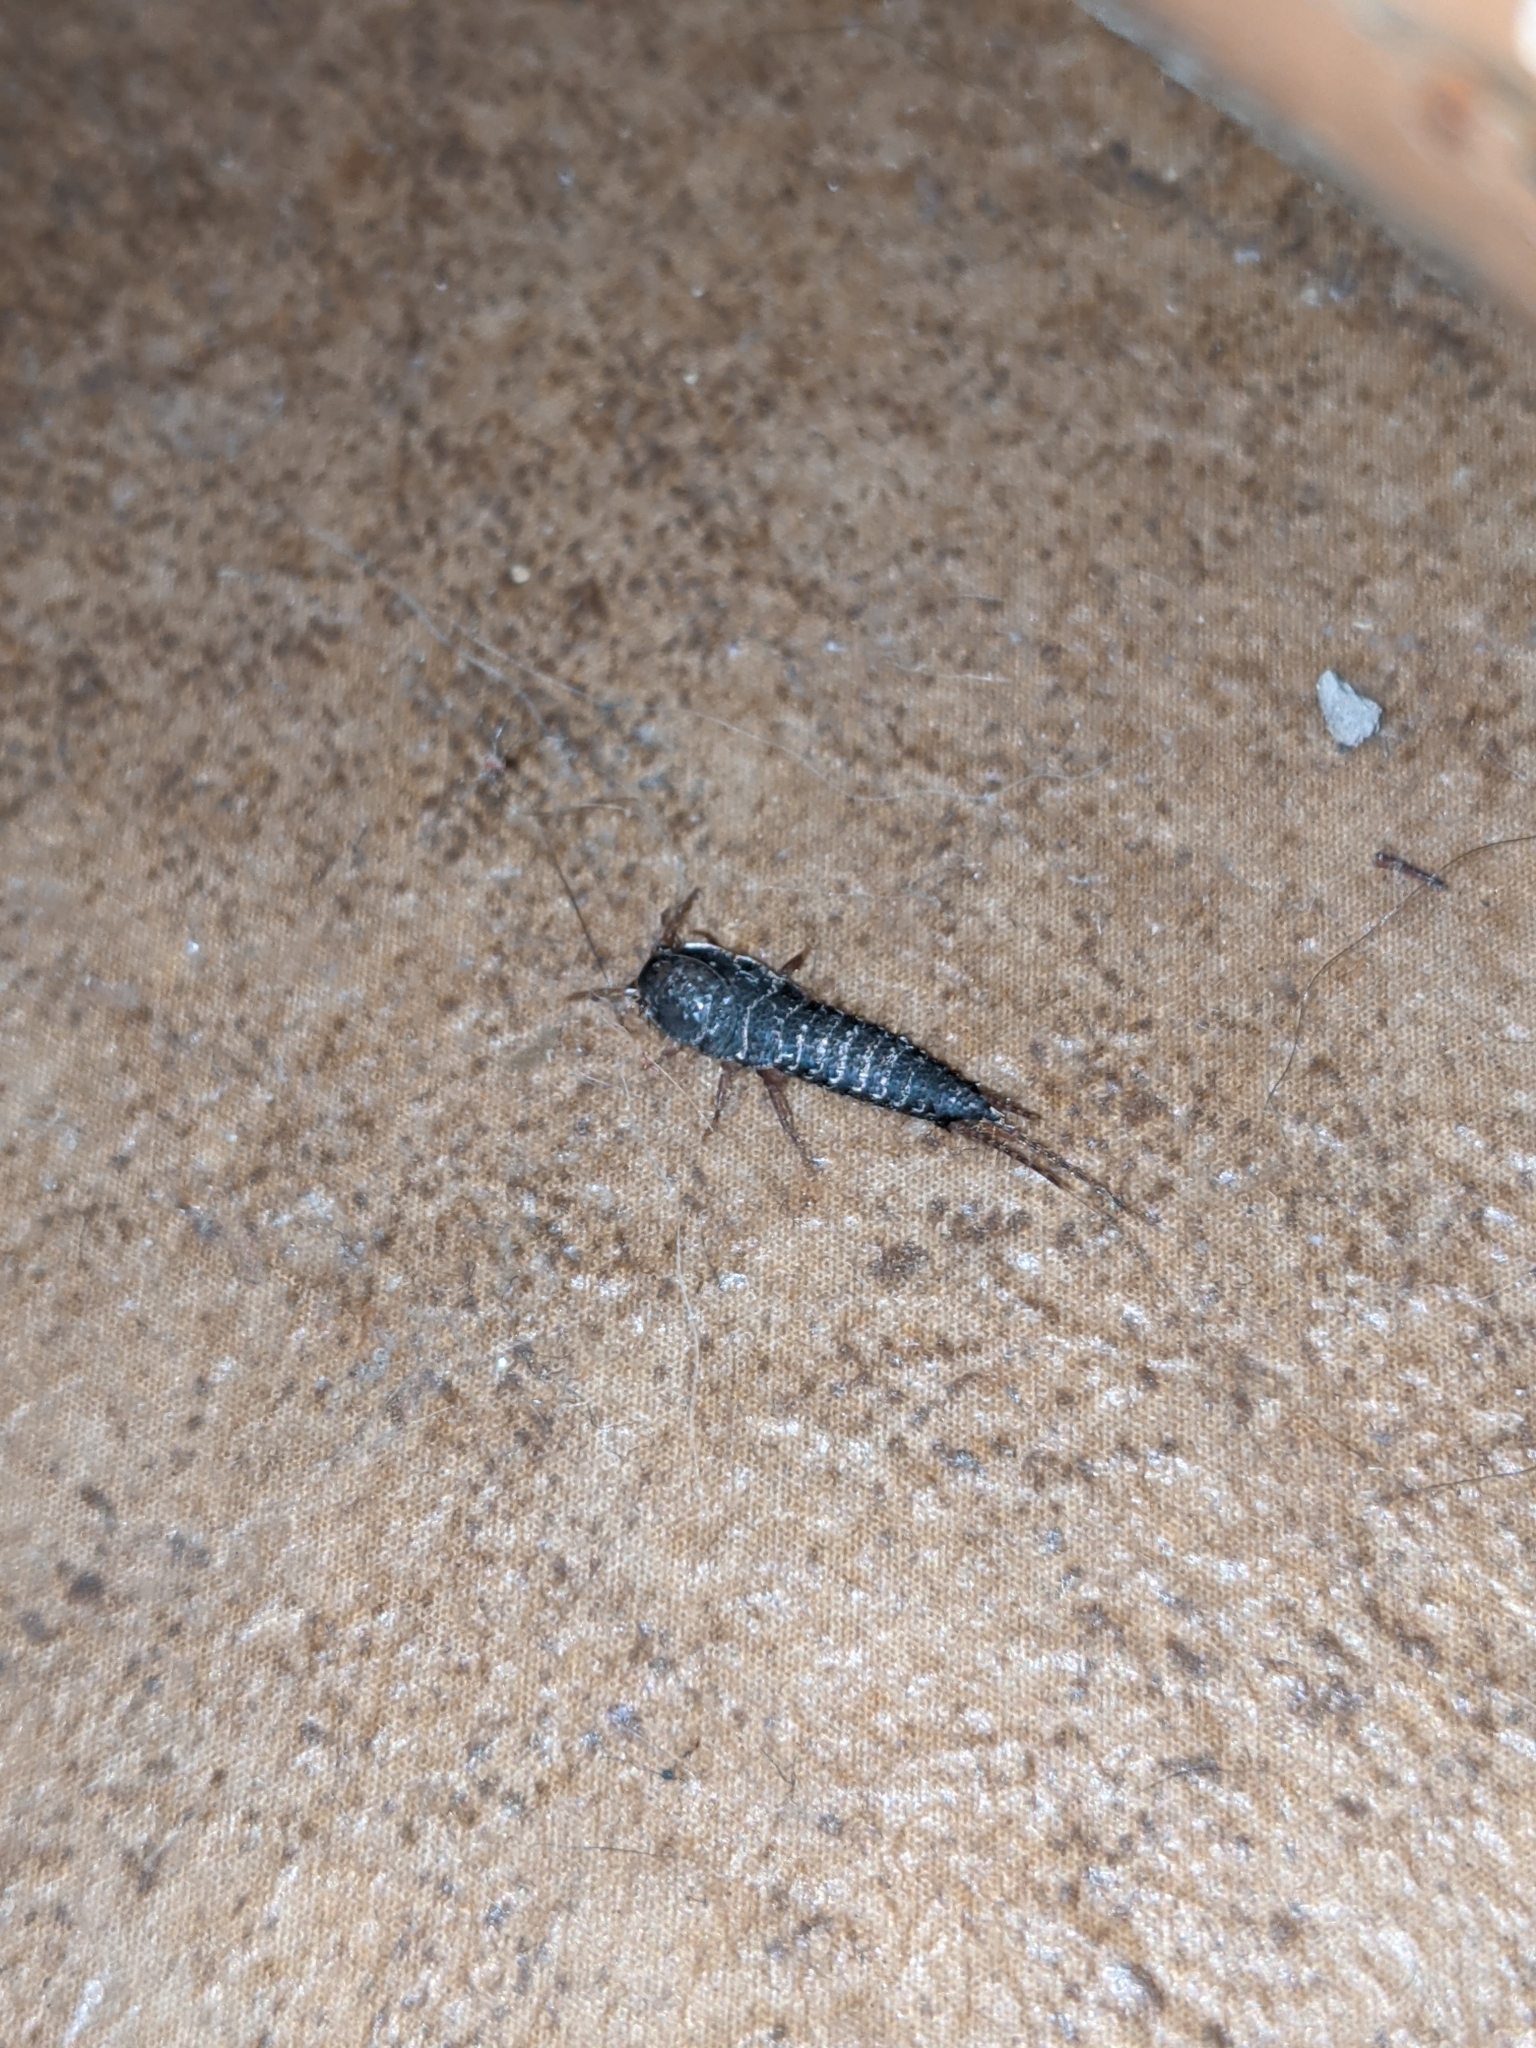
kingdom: Animalia
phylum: Arthropoda
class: Insecta
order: Zygentoma
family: Lepismatidae
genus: Lepisma
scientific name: Lepisma saccharinum
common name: Silverfish
